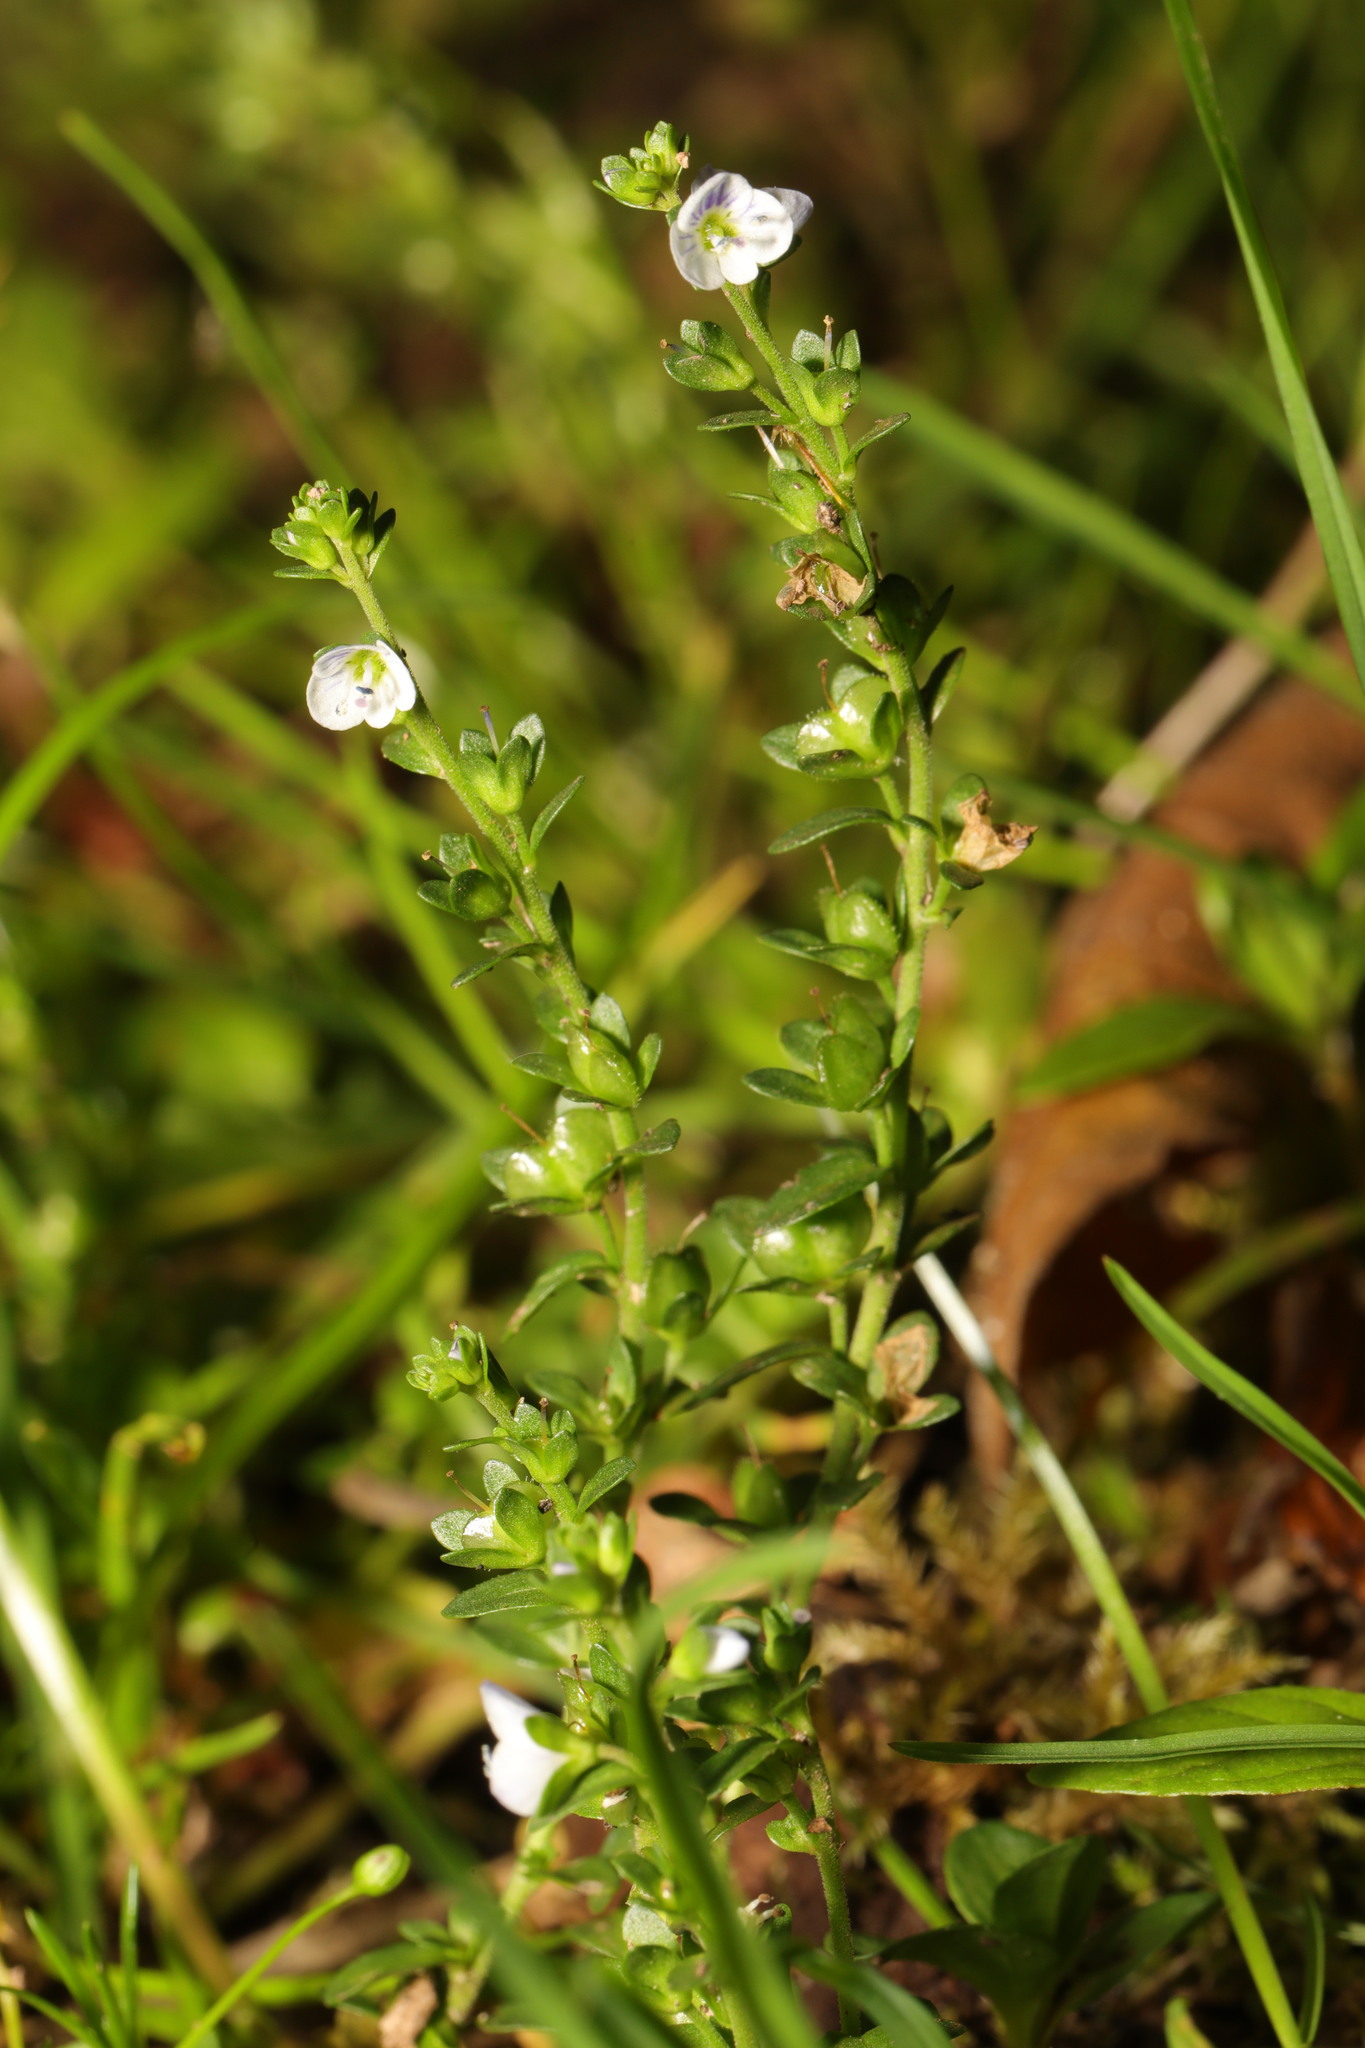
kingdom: Plantae
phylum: Tracheophyta
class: Magnoliopsida
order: Lamiales
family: Plantaginaceae
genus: Veronica
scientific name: Veronica serpyllifolia
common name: Thyme-leaved speedwell
